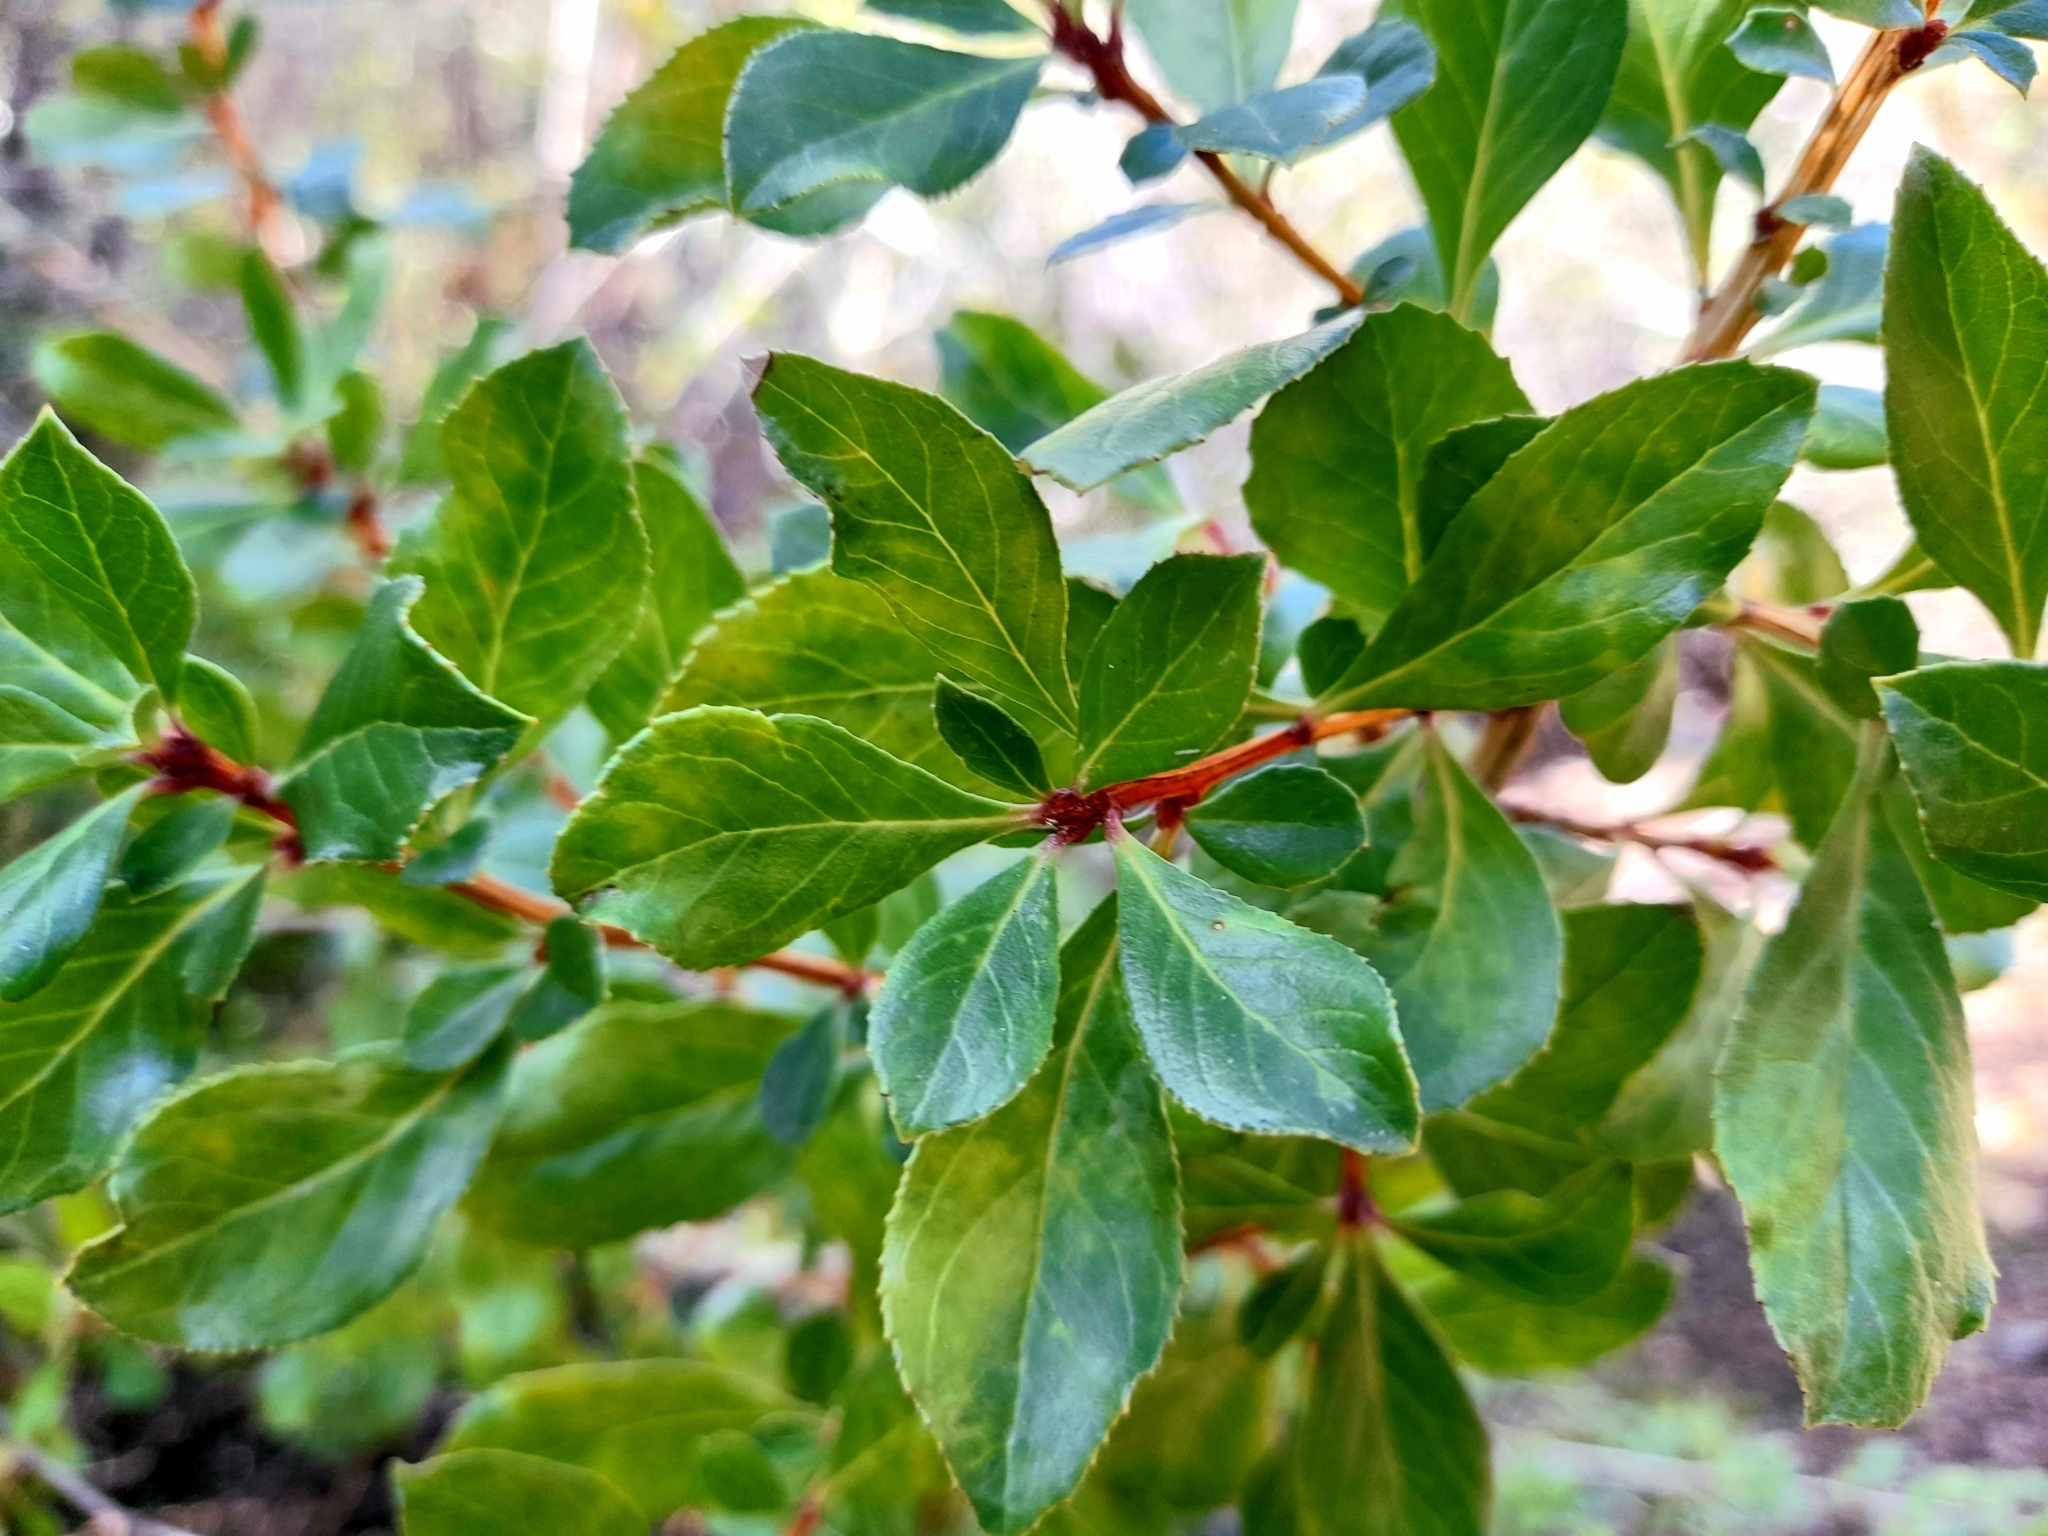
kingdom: Plantae
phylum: Tracheophyta
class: Magnoliopsida
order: Escalloniales
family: Escalloniaceae
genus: Escallonia
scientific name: Escallonia illinita
